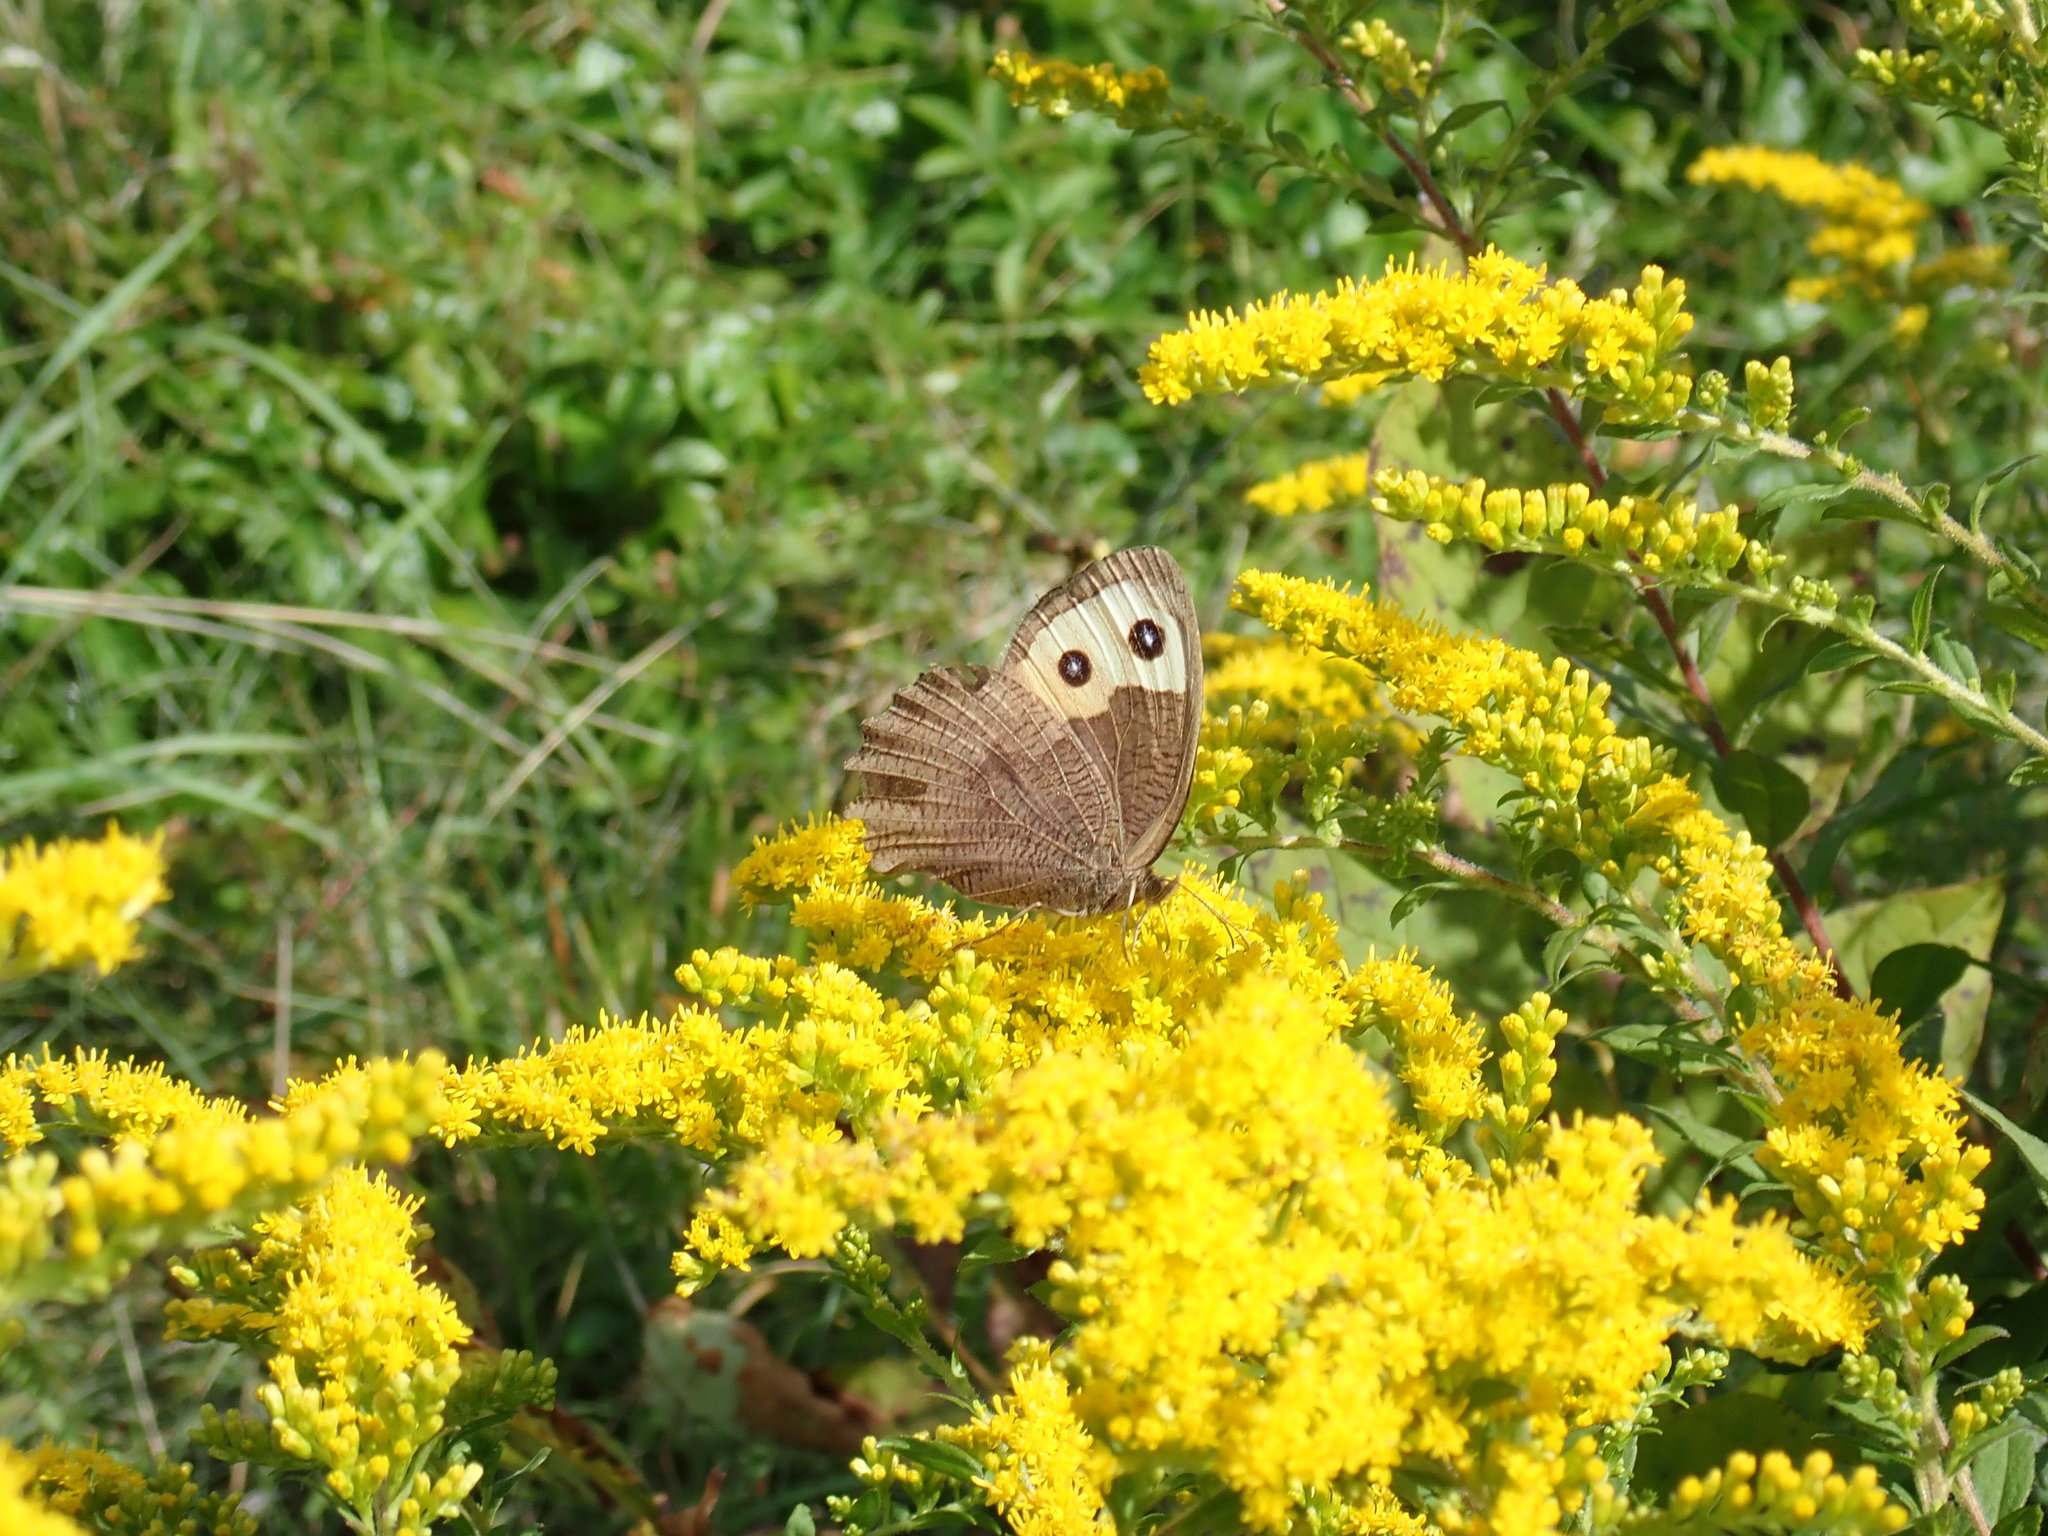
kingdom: Animalia
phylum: Arthropoda
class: Insecta
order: Lepidoptera
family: Nymphalidae
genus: Cercyonis
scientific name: Cercyonis pegala
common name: Common wood-nymph
